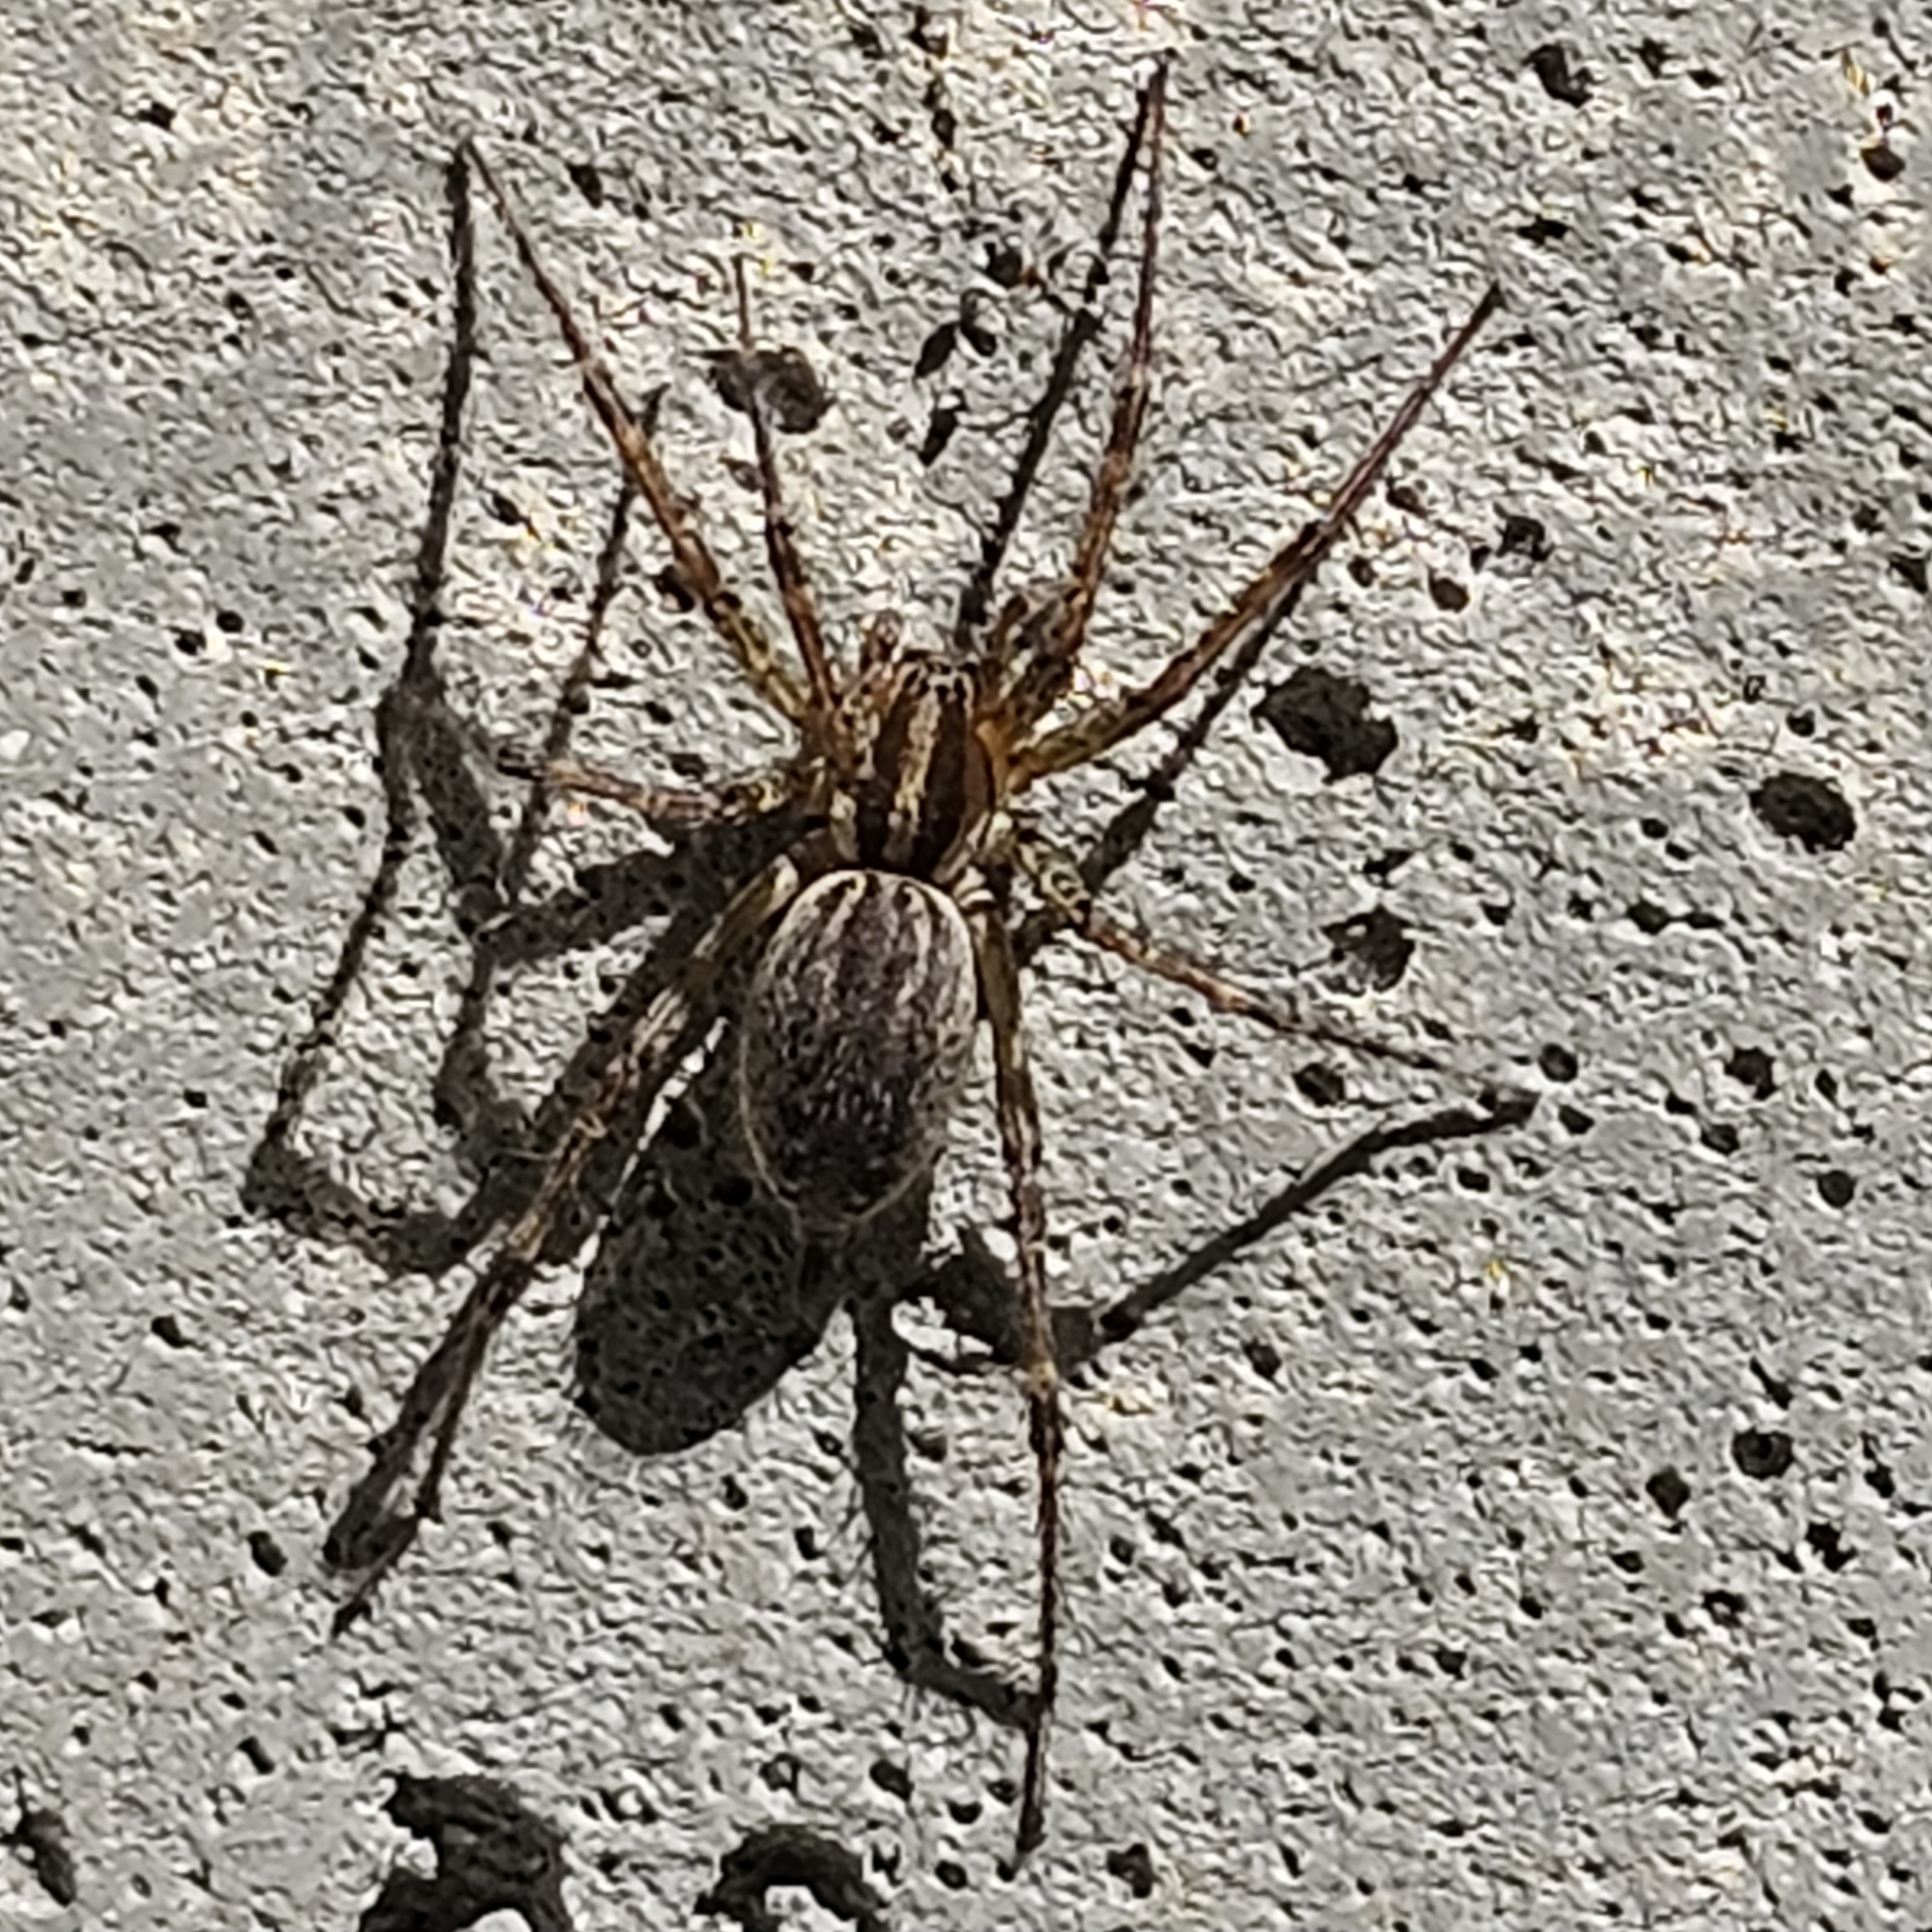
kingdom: Animalia
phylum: Arthropoda
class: Arachnida
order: Araneae
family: Agelenidae
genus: Agelenopsis
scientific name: Agelenopsis
